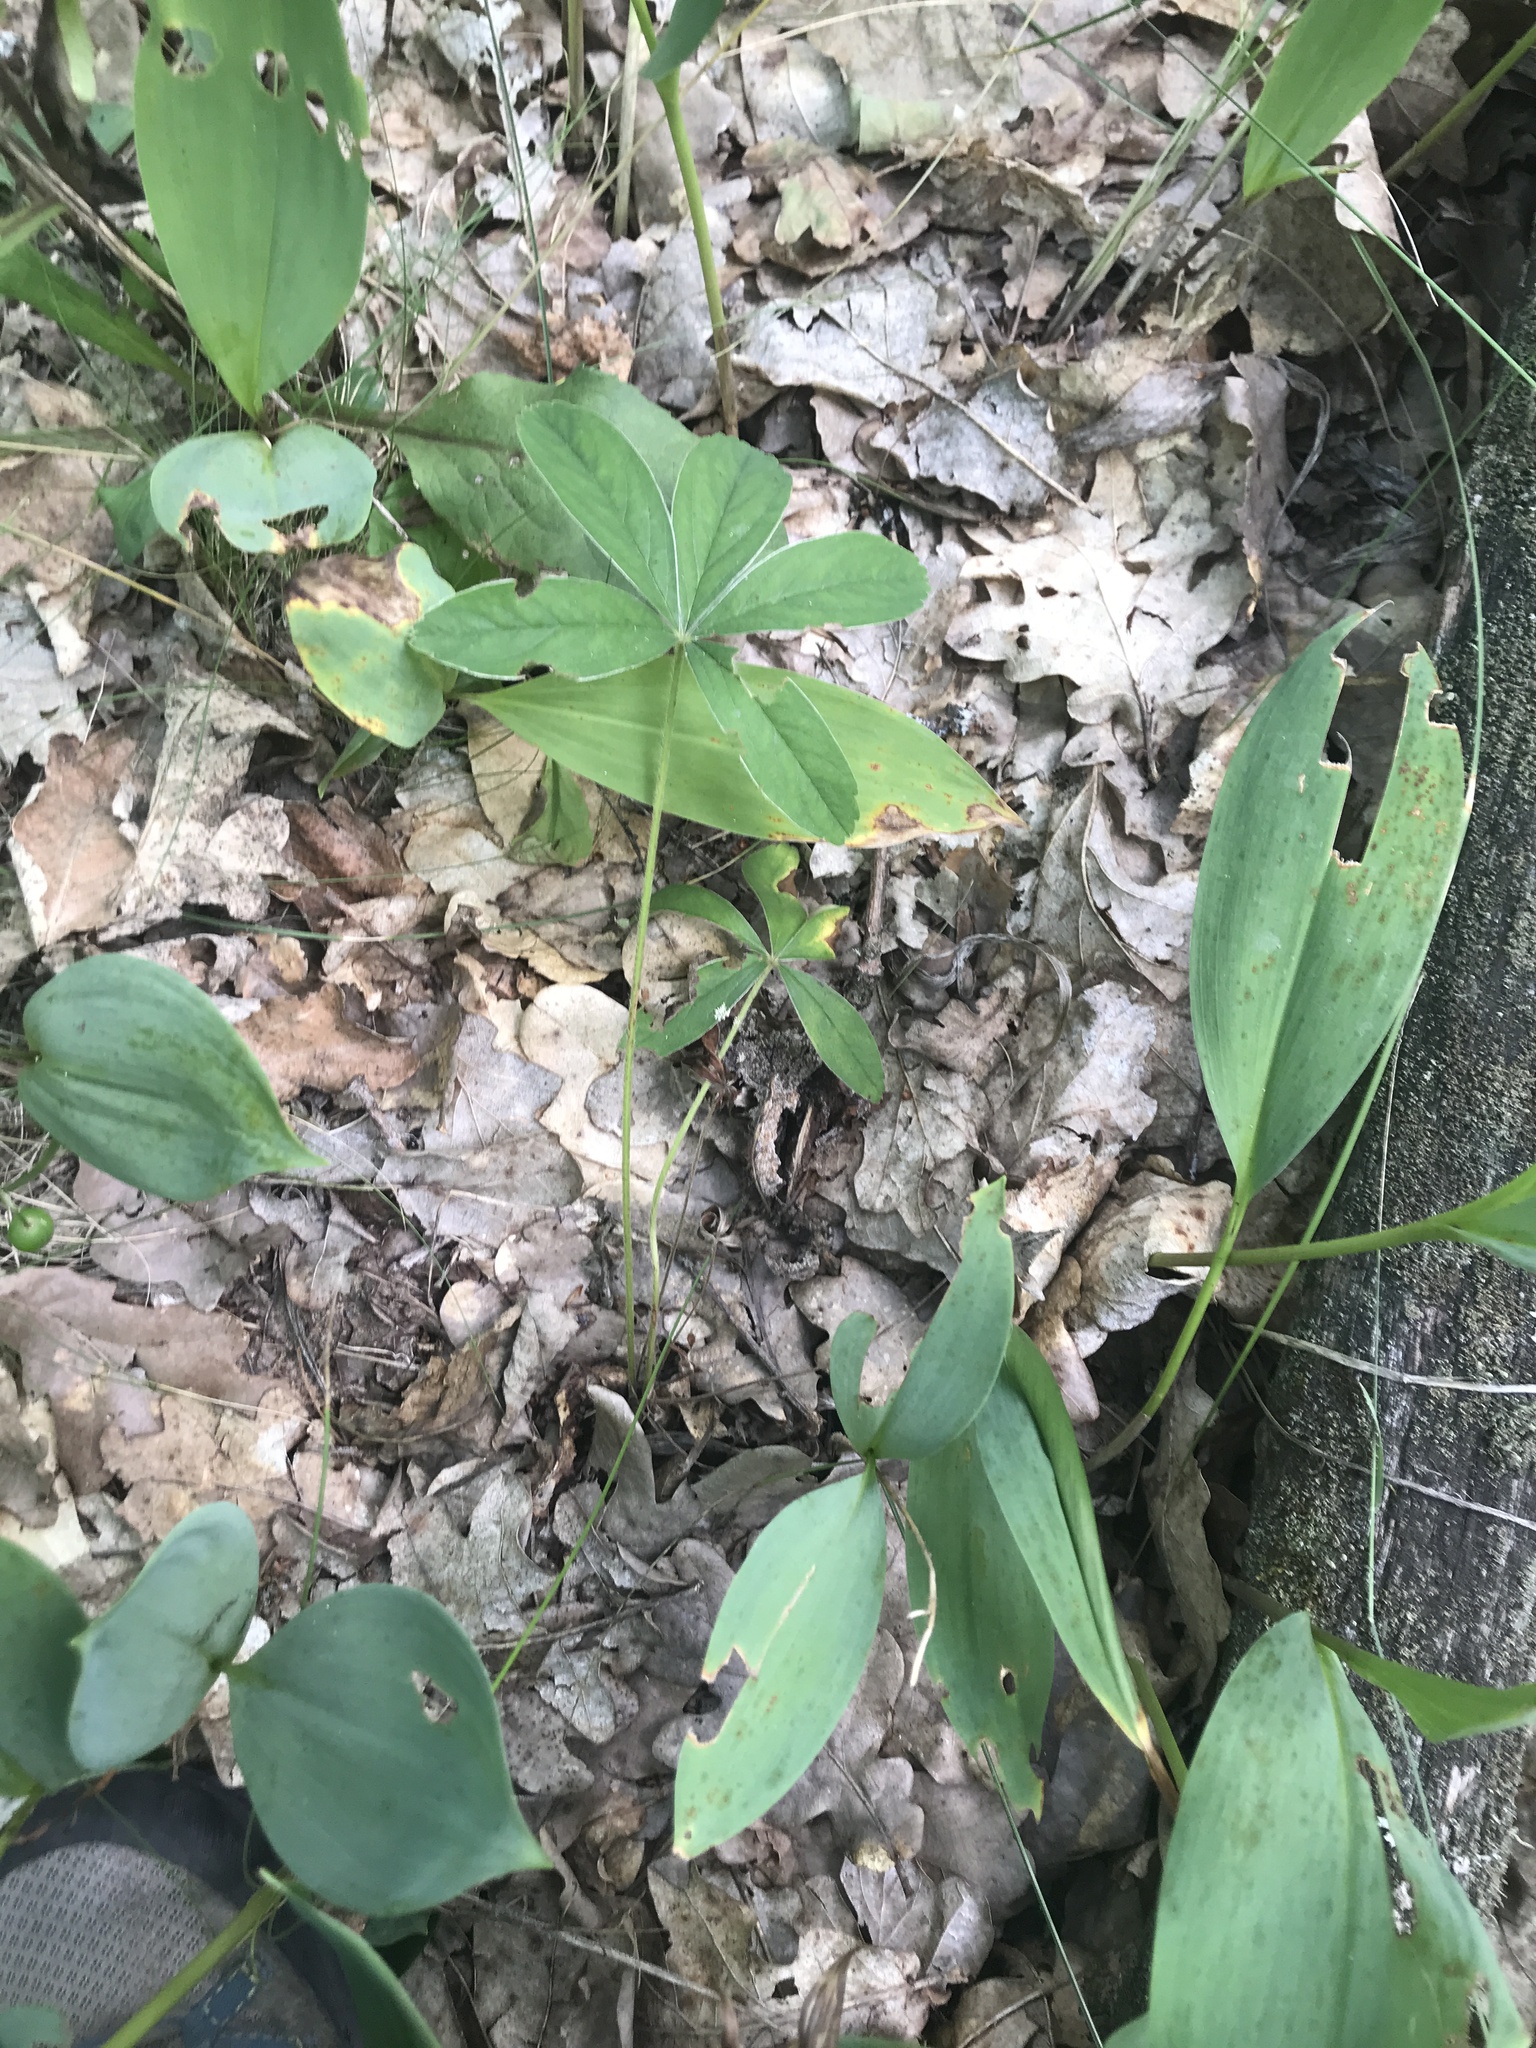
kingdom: Plantae
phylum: Tracheophyta
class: Magnoliopsida
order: Rosales
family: Rosaceae
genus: Potentilla
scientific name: Potentilla alba
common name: White cinquefoil
